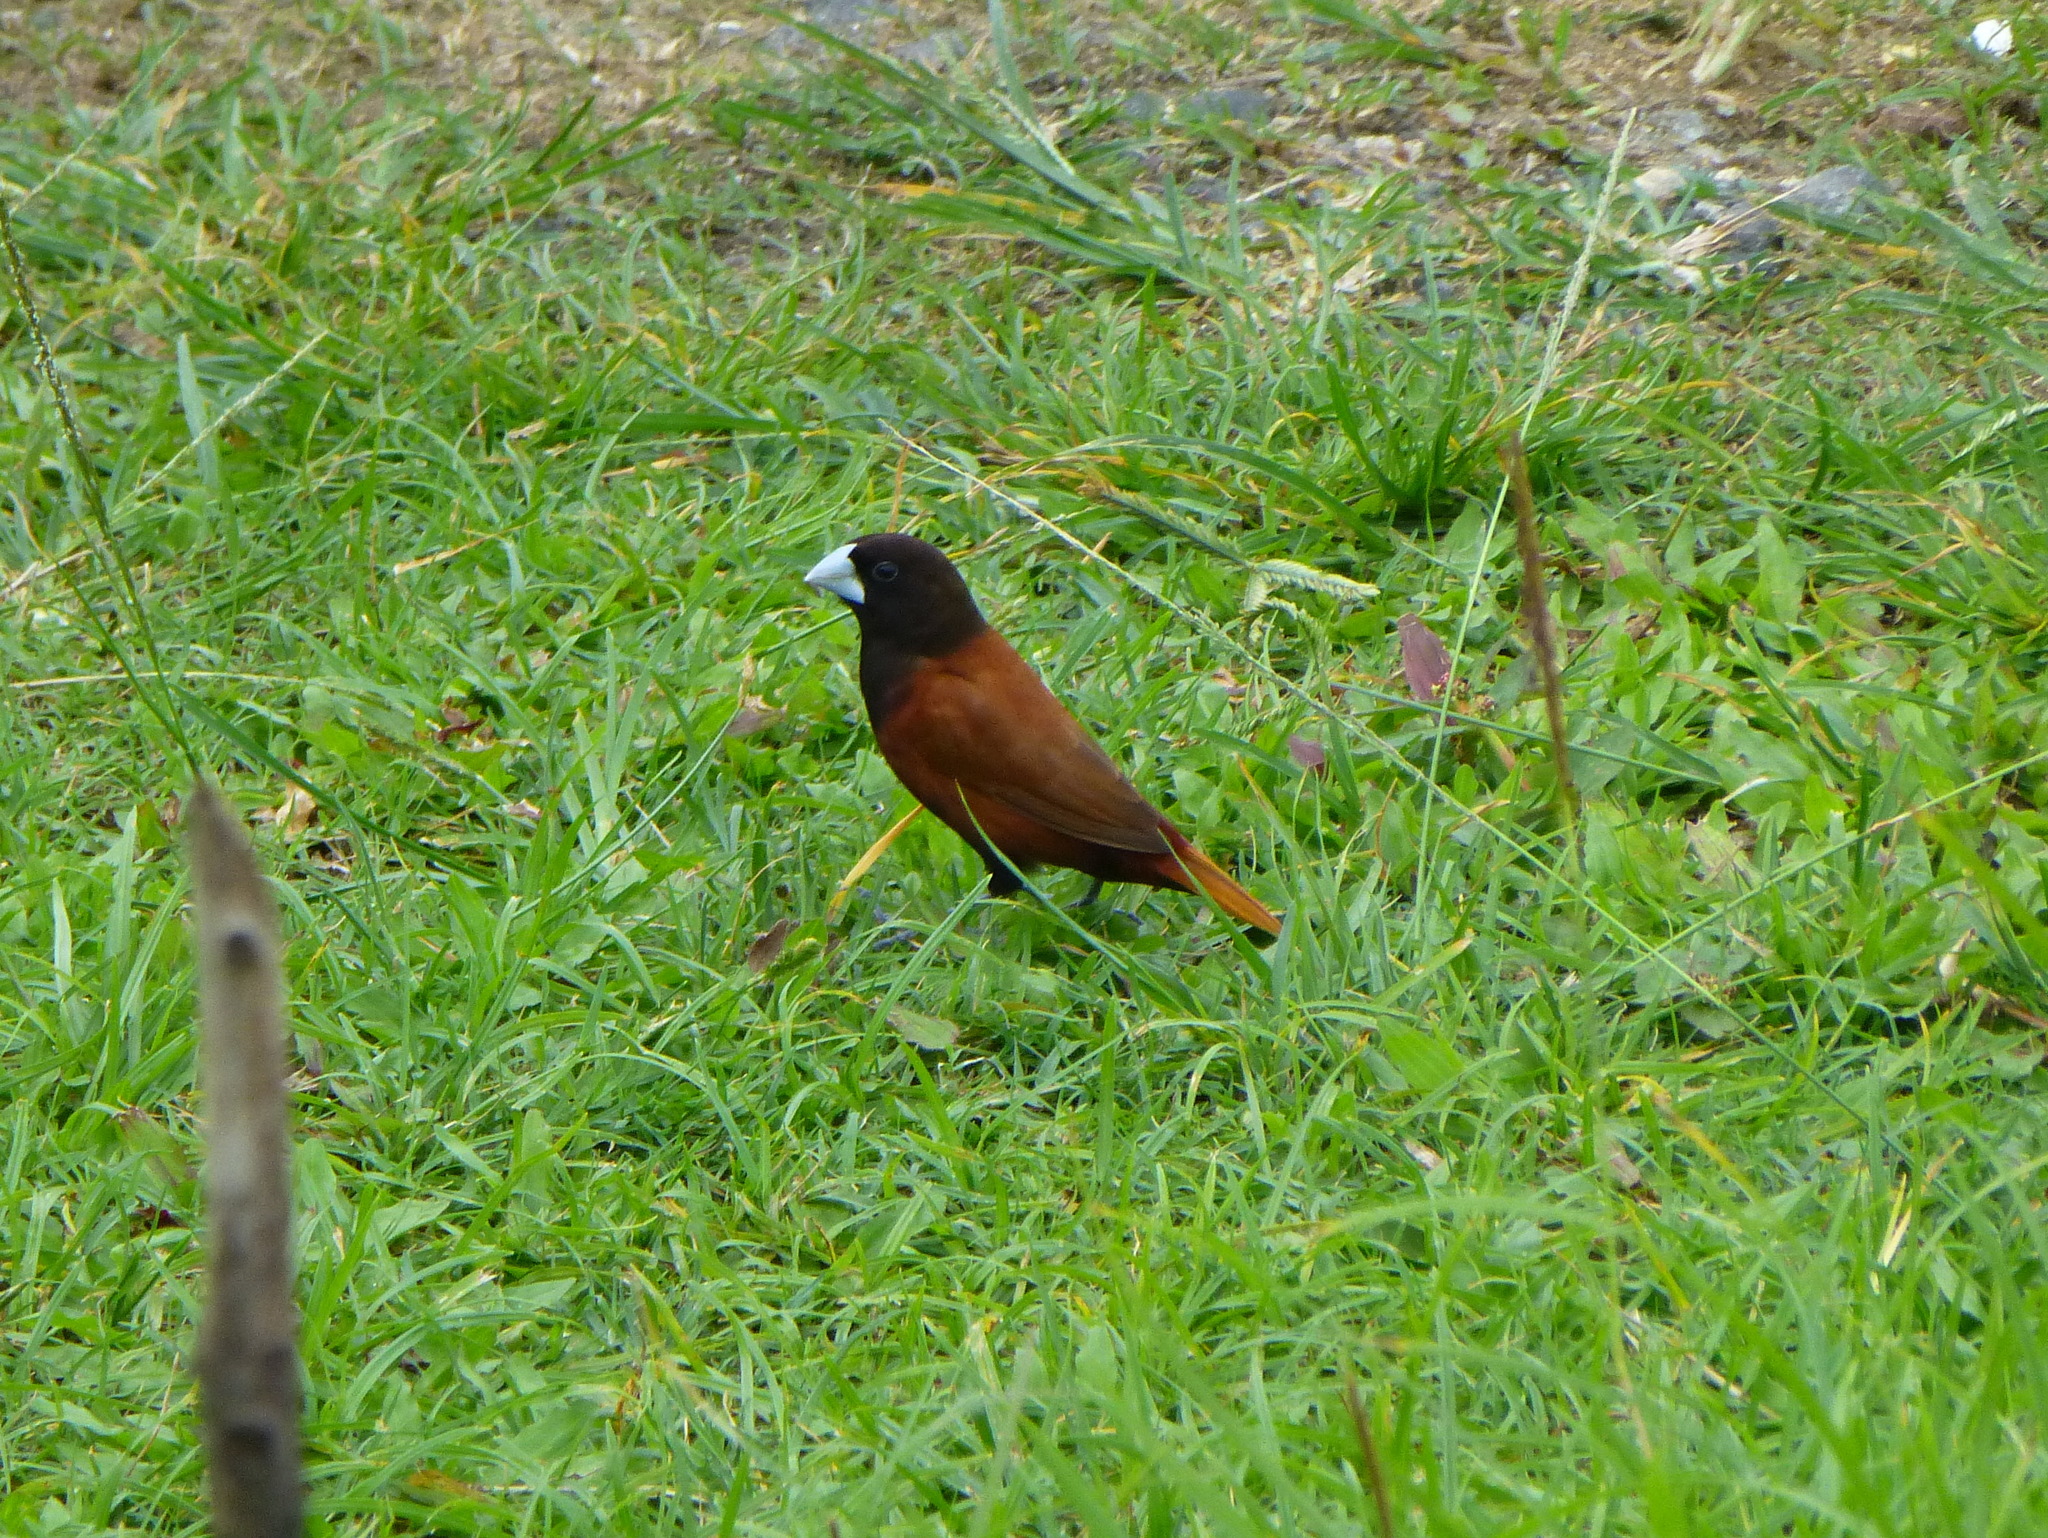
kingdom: Animalia
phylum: Chordata
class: Aves
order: Passeriformes
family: Estrildidae
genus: Lonchura
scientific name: Lonchura atricapilla
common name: Chestnut munia
